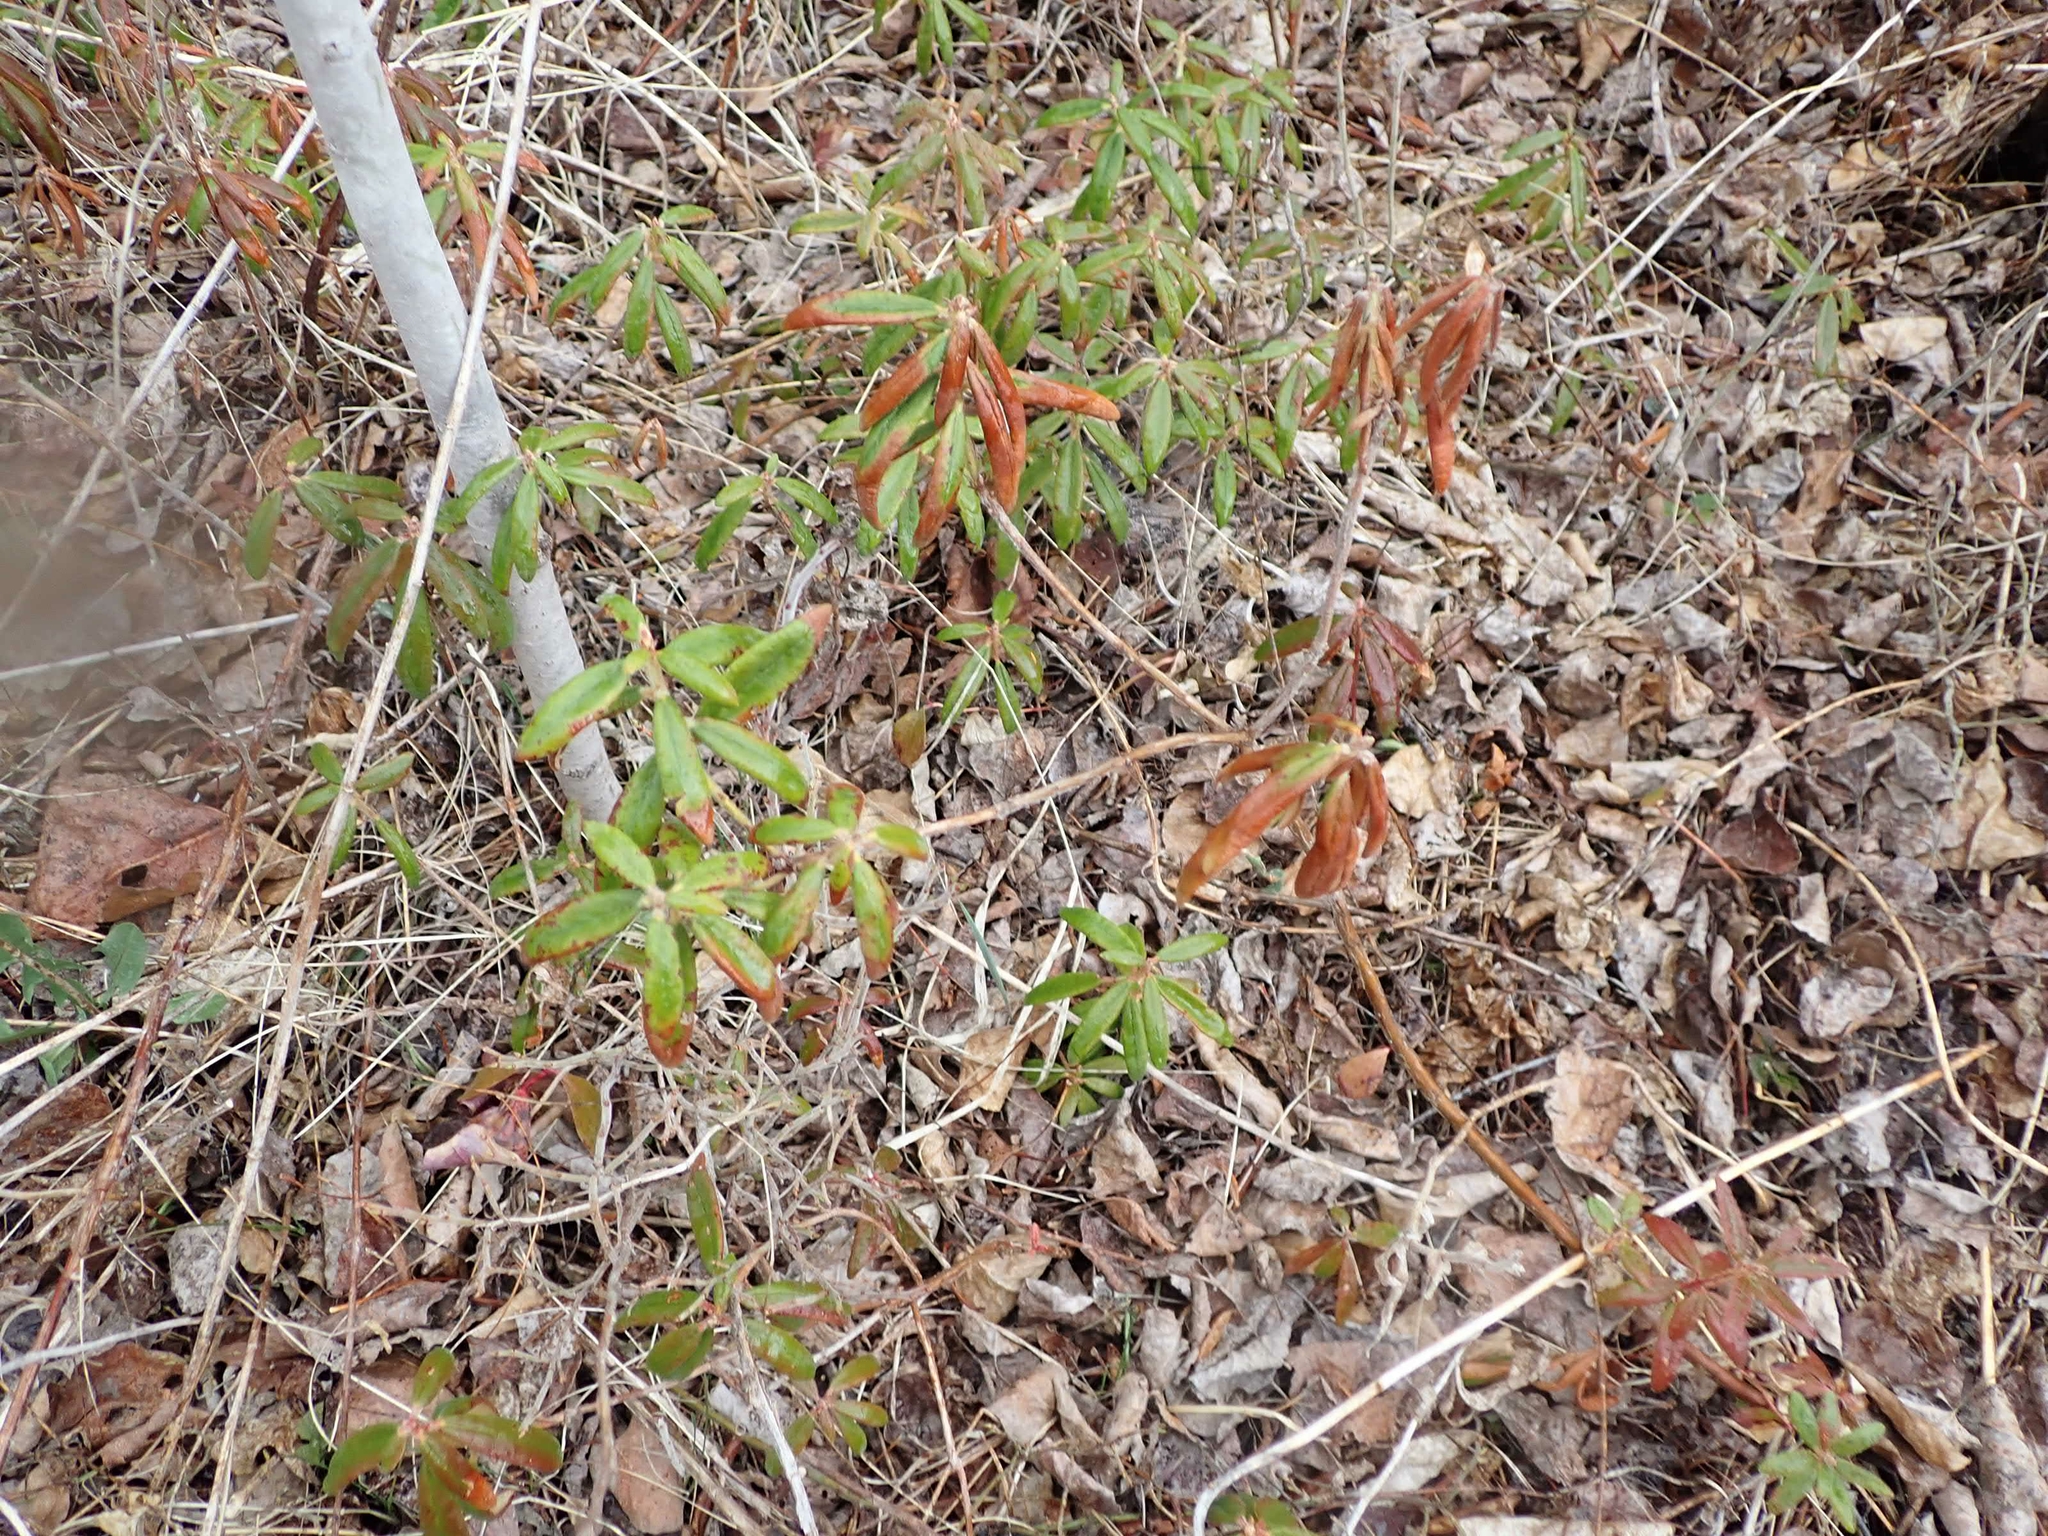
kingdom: Plantae
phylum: Tracheophyta
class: Magnoliopsida
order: Ericales
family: Ericaceae
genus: Rhododendron
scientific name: Rhododendron groenlandicum
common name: Bog labrador tea
